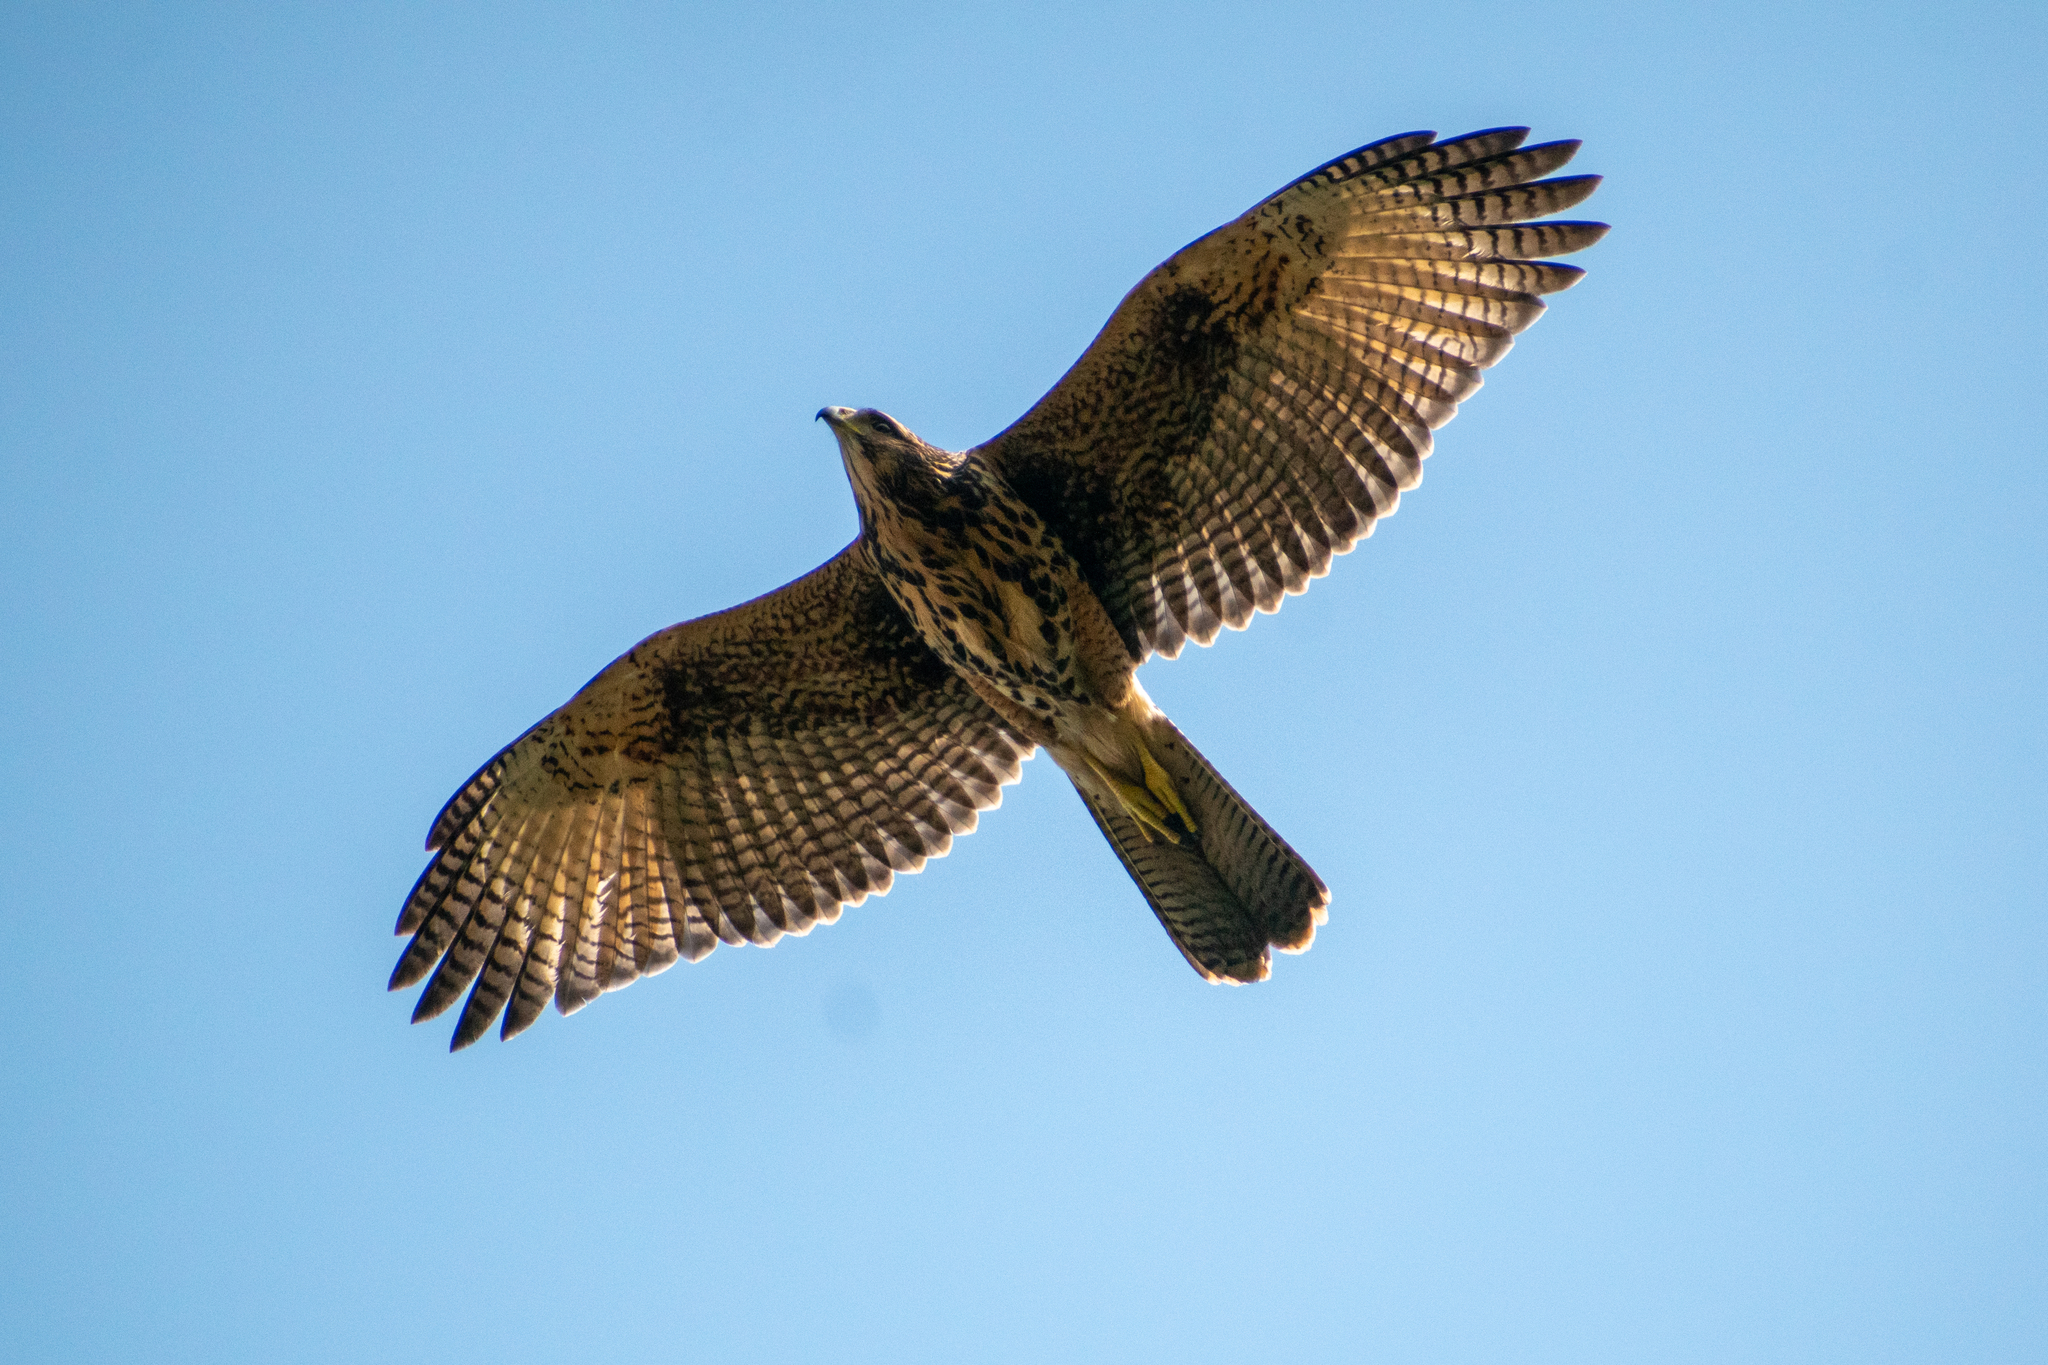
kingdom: Animalia
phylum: Chordata
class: Aves
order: Accipitriformes
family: Accipitridae
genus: Parabuteo
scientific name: Parabuteo unicinctus
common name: Harris's hawk
